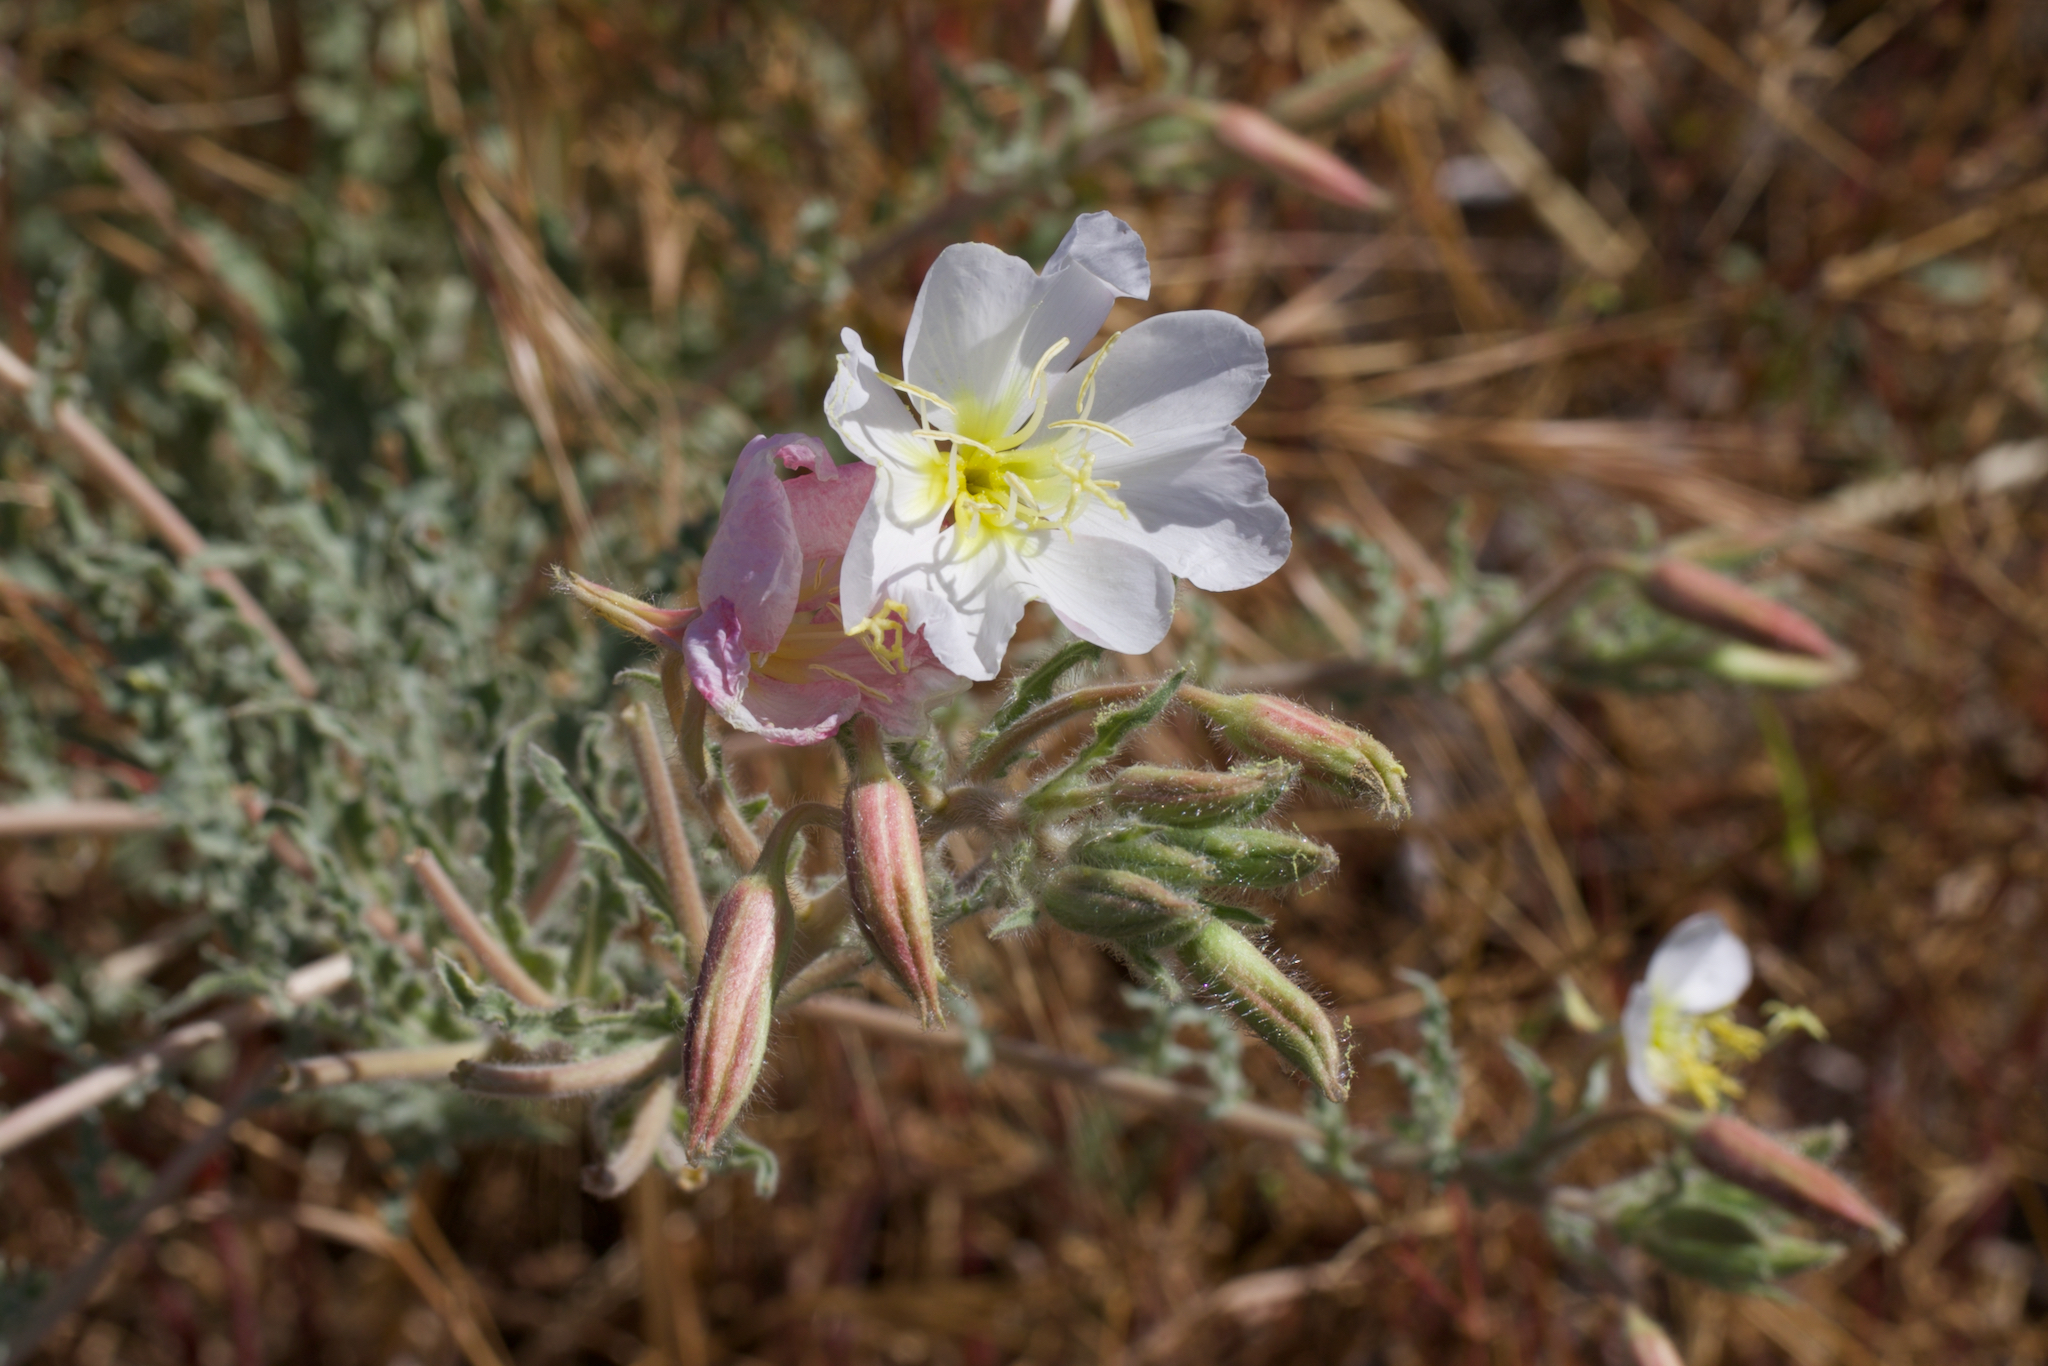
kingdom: Plantae
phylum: Tracheophyta
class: Magnoliopsida
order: Myrtales
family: Onagraceae
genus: Oenothera
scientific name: Oenothera deltoides
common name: Basket evening-primrose
